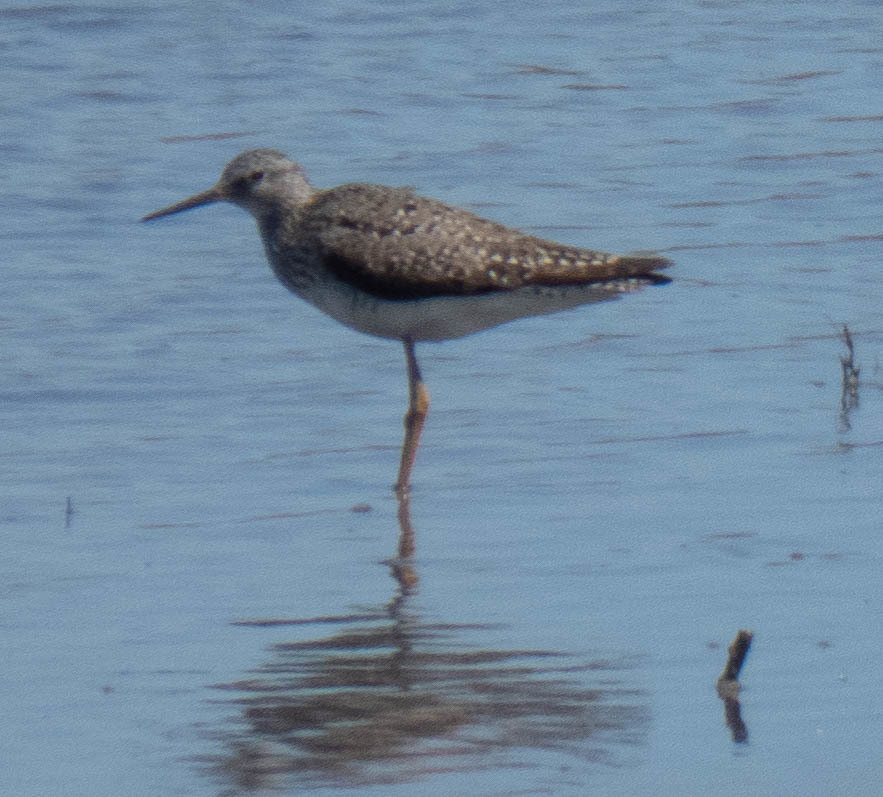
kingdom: Animalia
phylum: Chordata
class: Aves
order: Charadriiformes
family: Scolopacidae
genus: Tringa
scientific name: Tringa flavipes
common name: Lesser yellowlegs
